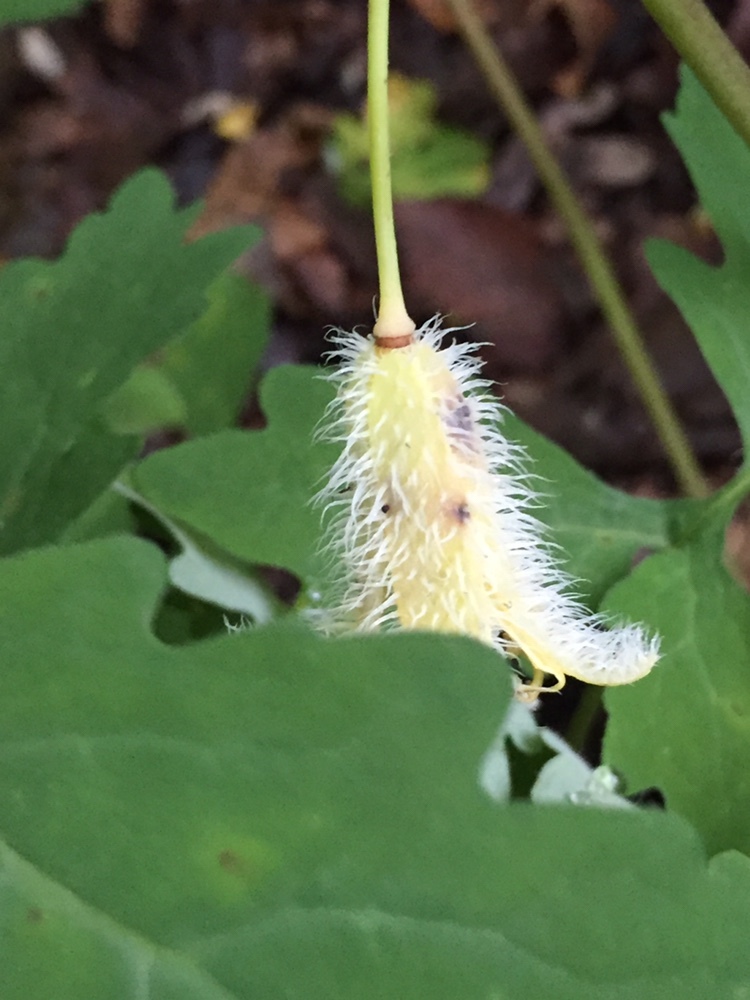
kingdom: Plantae
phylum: Tracheophyta
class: Magnoliopsida
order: Ranunculales
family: Papaveraceae
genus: Stylophorum
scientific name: Stylophorum diphyllum
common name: Celandine poppy
